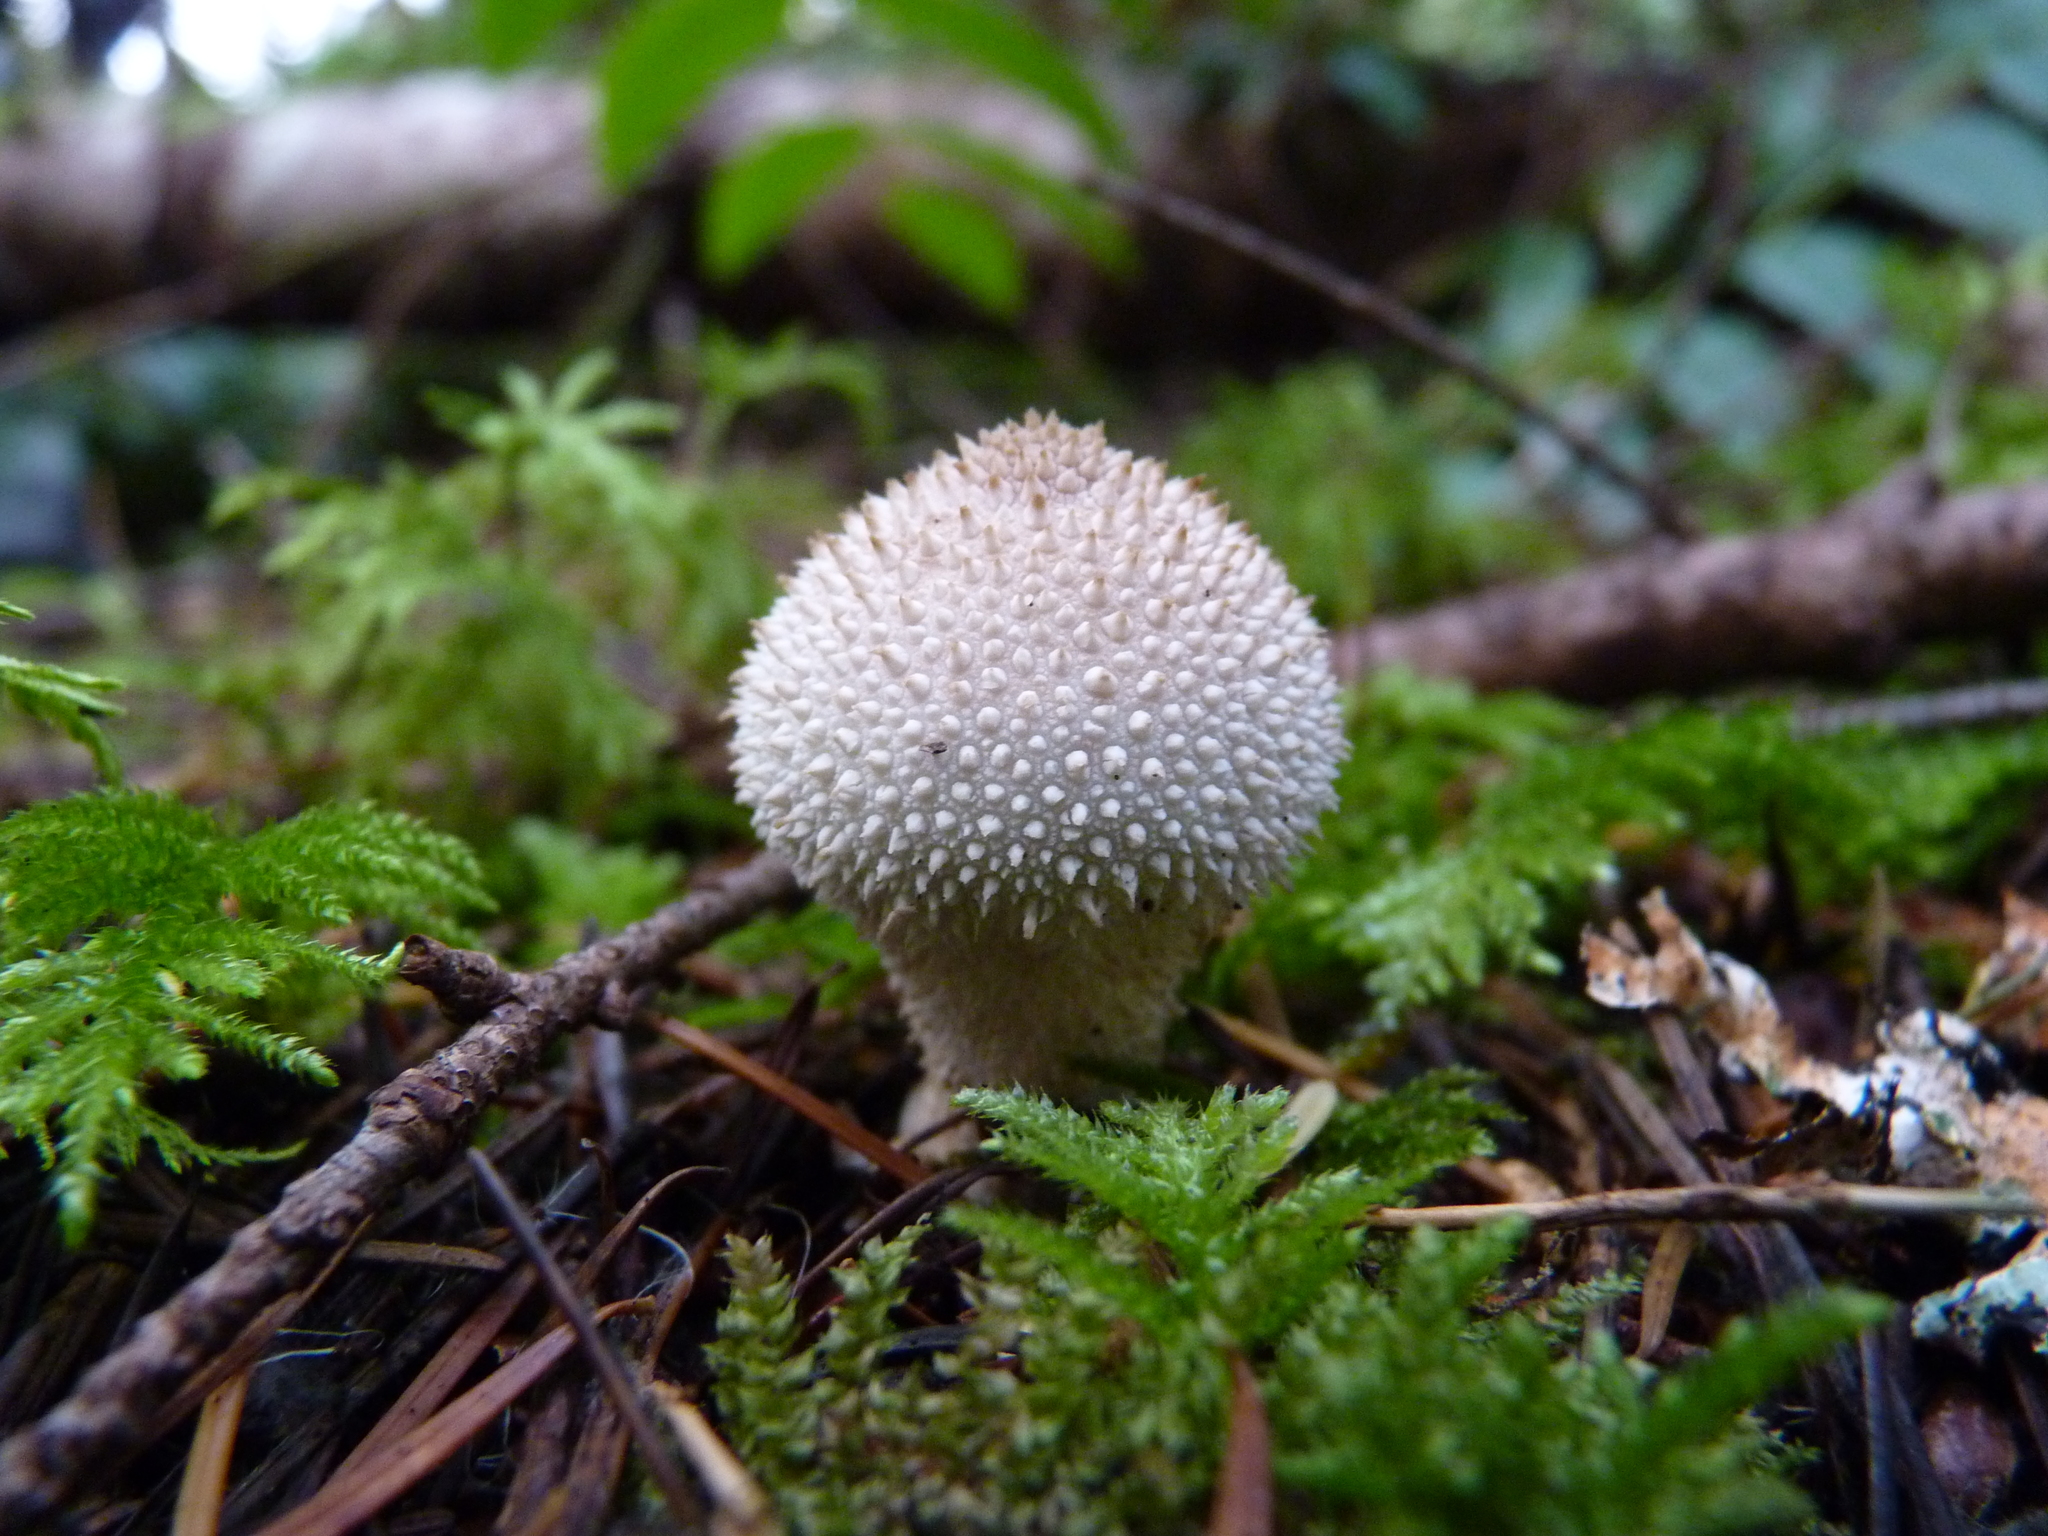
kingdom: Fungi
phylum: Basidiomycota
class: Agaricomycetes
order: Agaricales
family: Lycoperdaceae
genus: Lycoperdon
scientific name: Lycoperdon perlatum
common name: Common puffball
